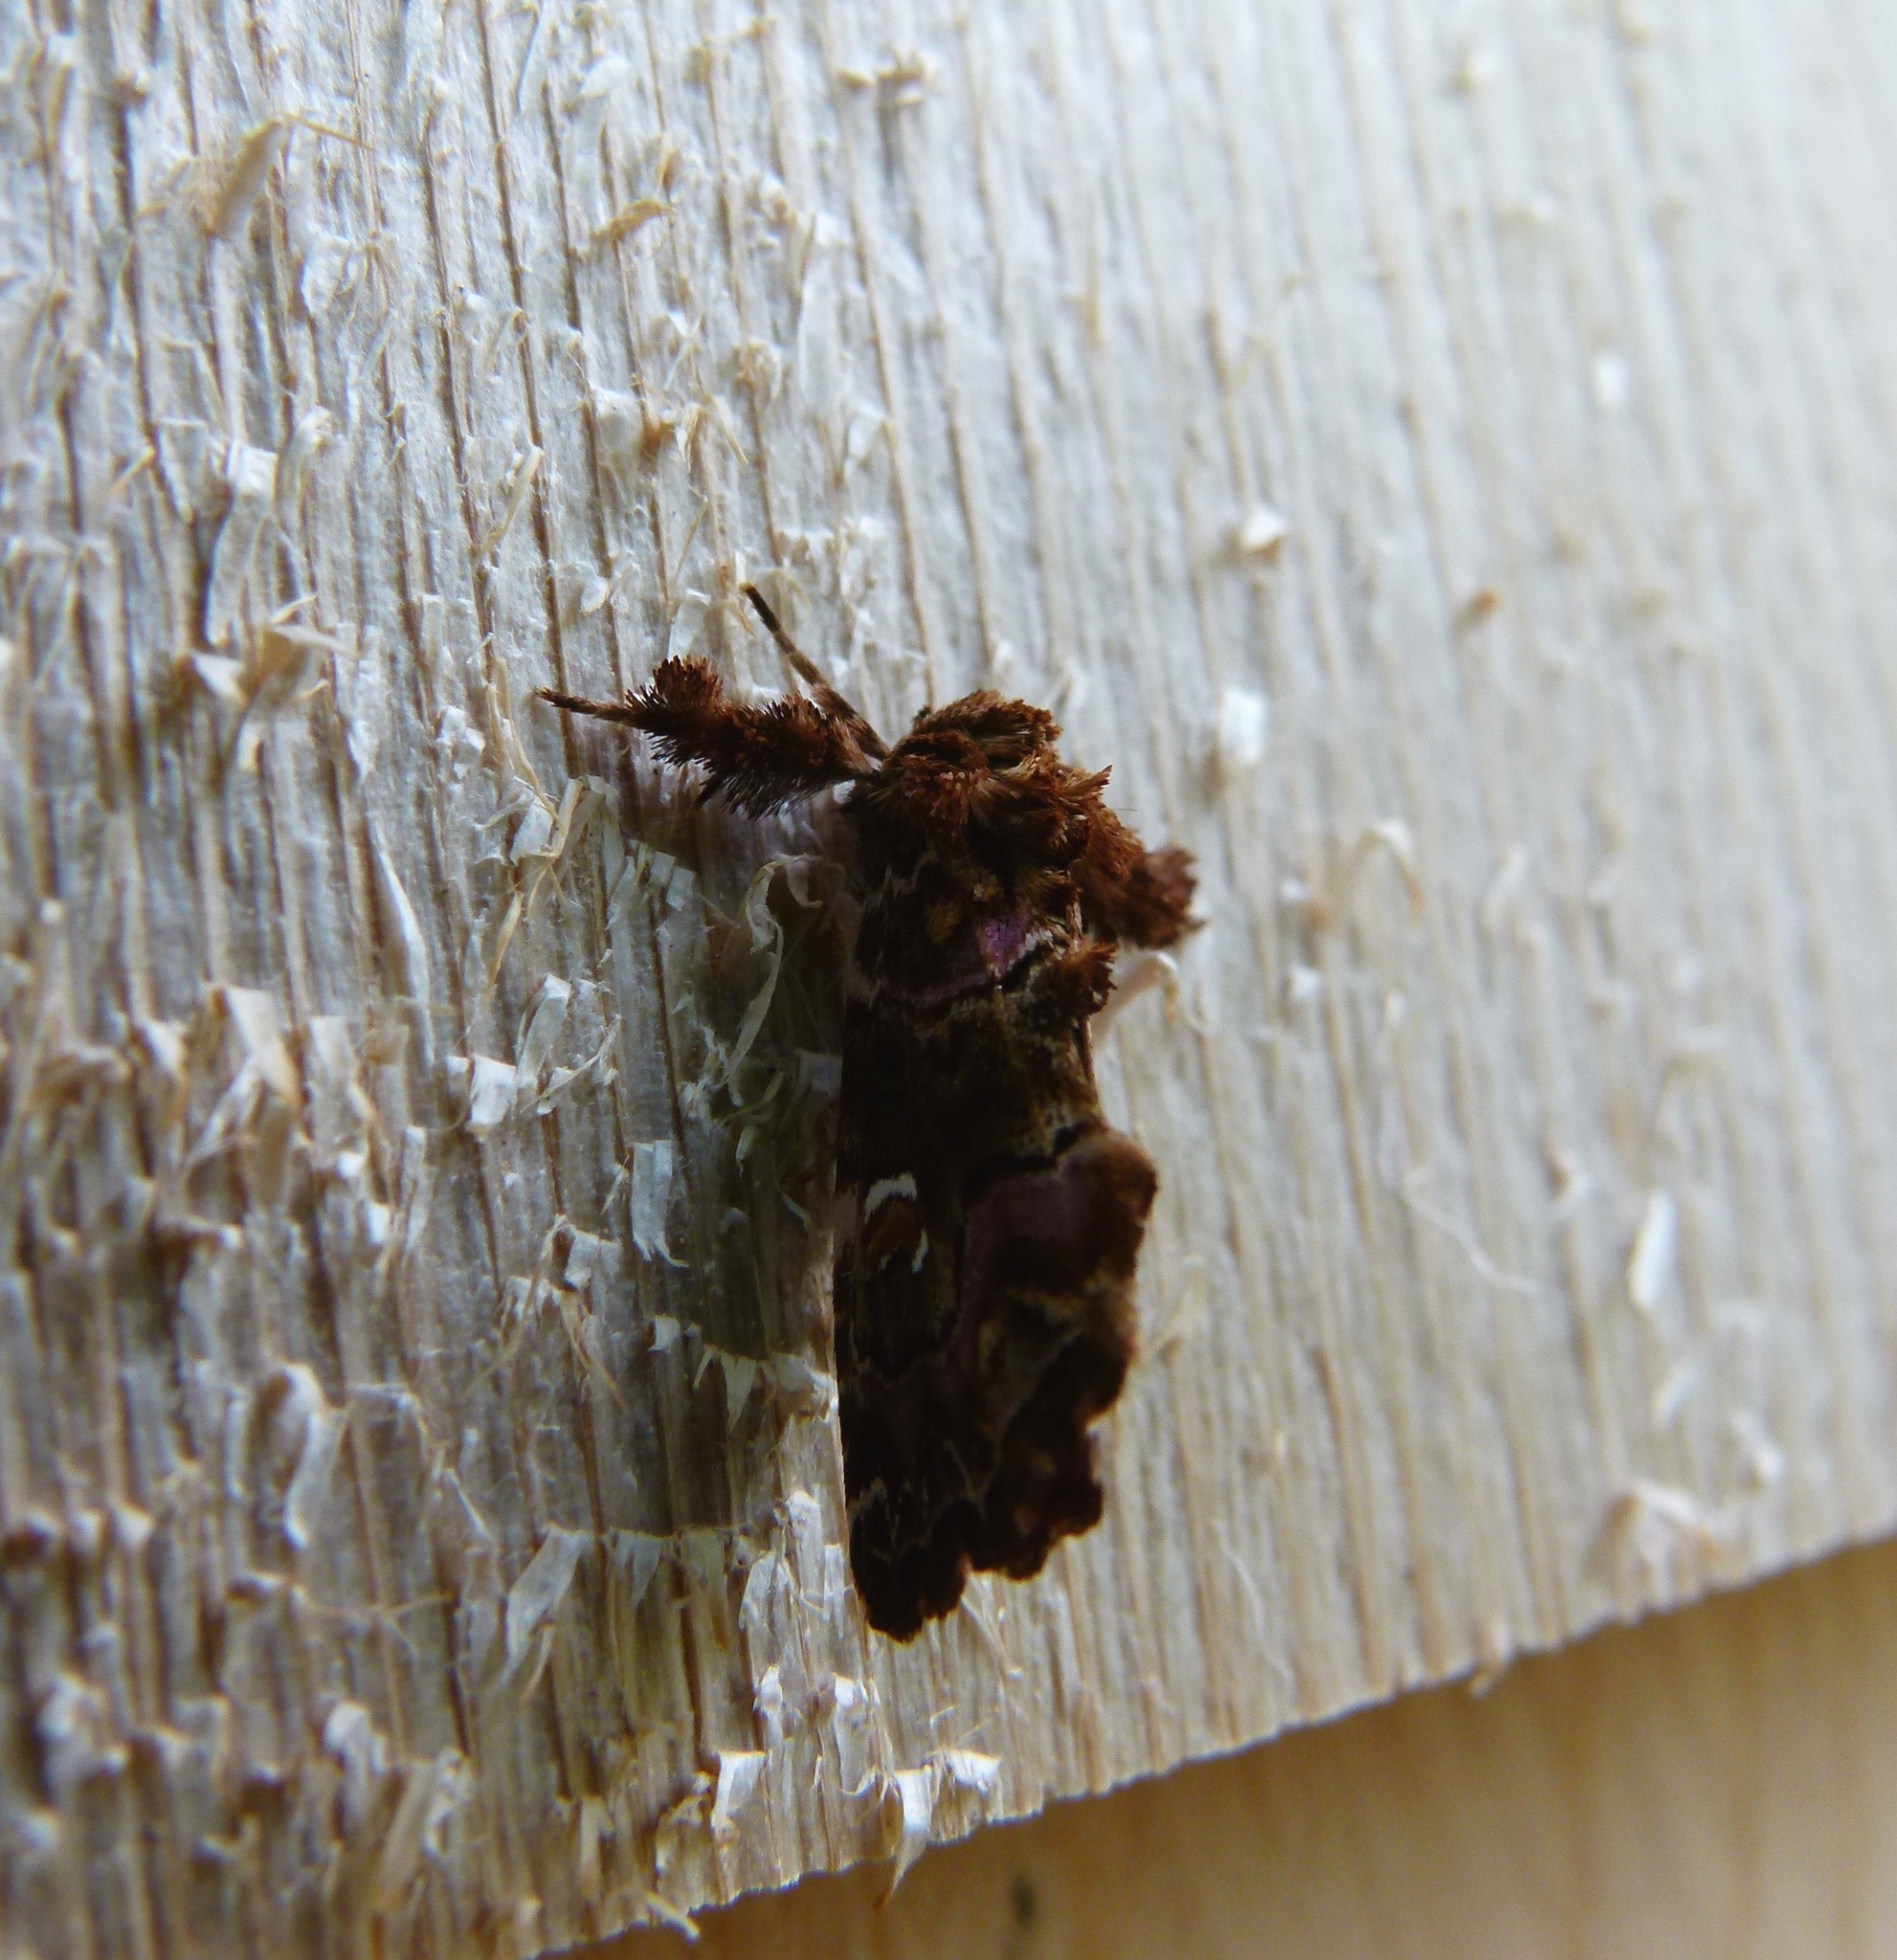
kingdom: Animalia
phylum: Arthropoda
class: Insecta
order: Lepidoptera
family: Noctuidae
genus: Callopistria
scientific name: Callopistria mollissima
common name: Pink-shaded fern moth
